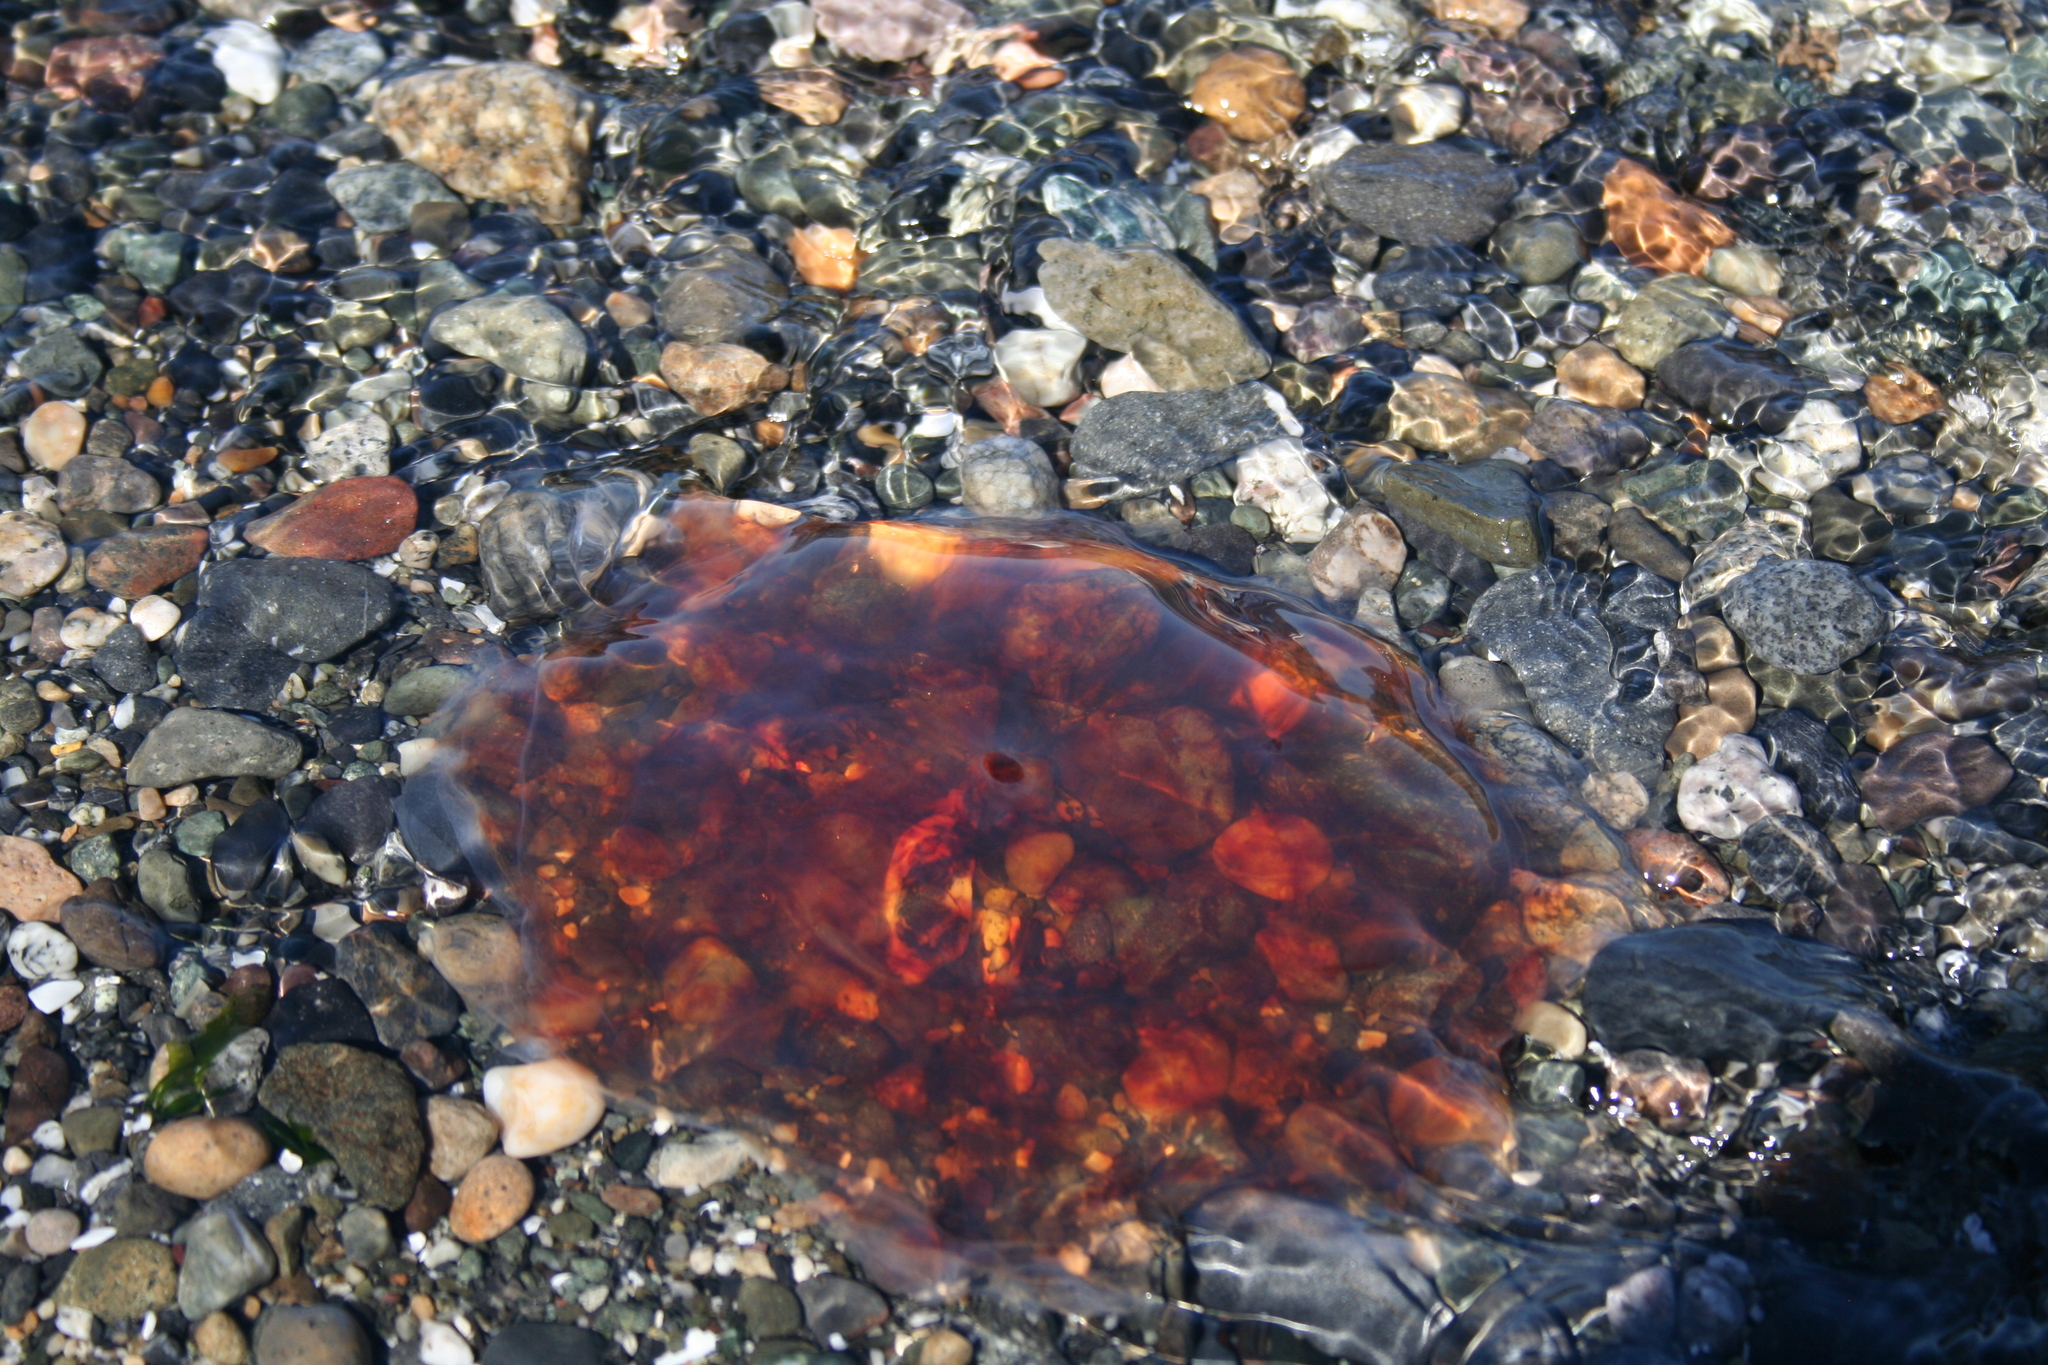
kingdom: Animalia
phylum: Cnidaria
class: Scyphozoa
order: Semaeostomeae
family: Cyaneidae
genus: Cyanea
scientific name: Cyanea ferruginea
